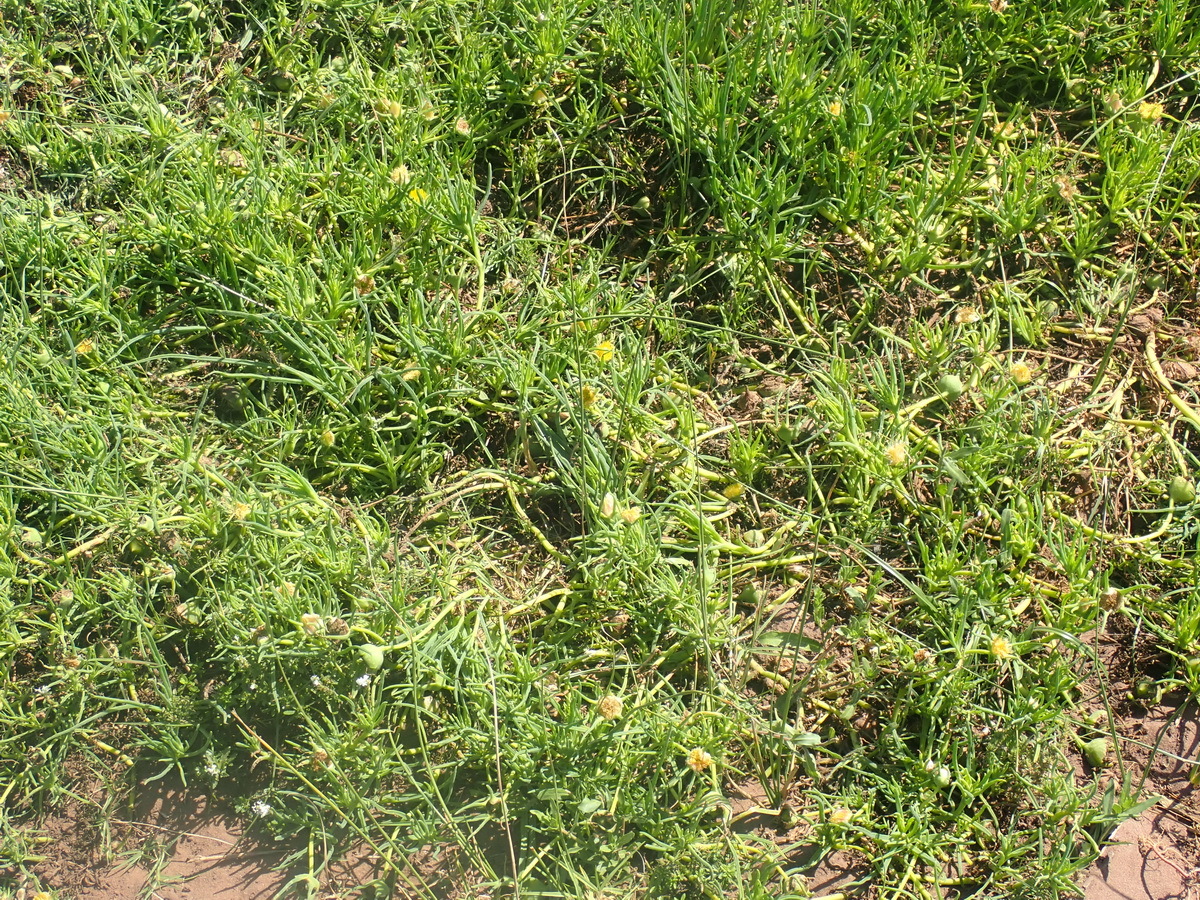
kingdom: Plantae
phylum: Tracheophyta
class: Magnoliopsida
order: Caryophyllales
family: Aizoaceae
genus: Conicosia
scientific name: Conicosia pugioniformis
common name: Narrow-leaved iceplant
